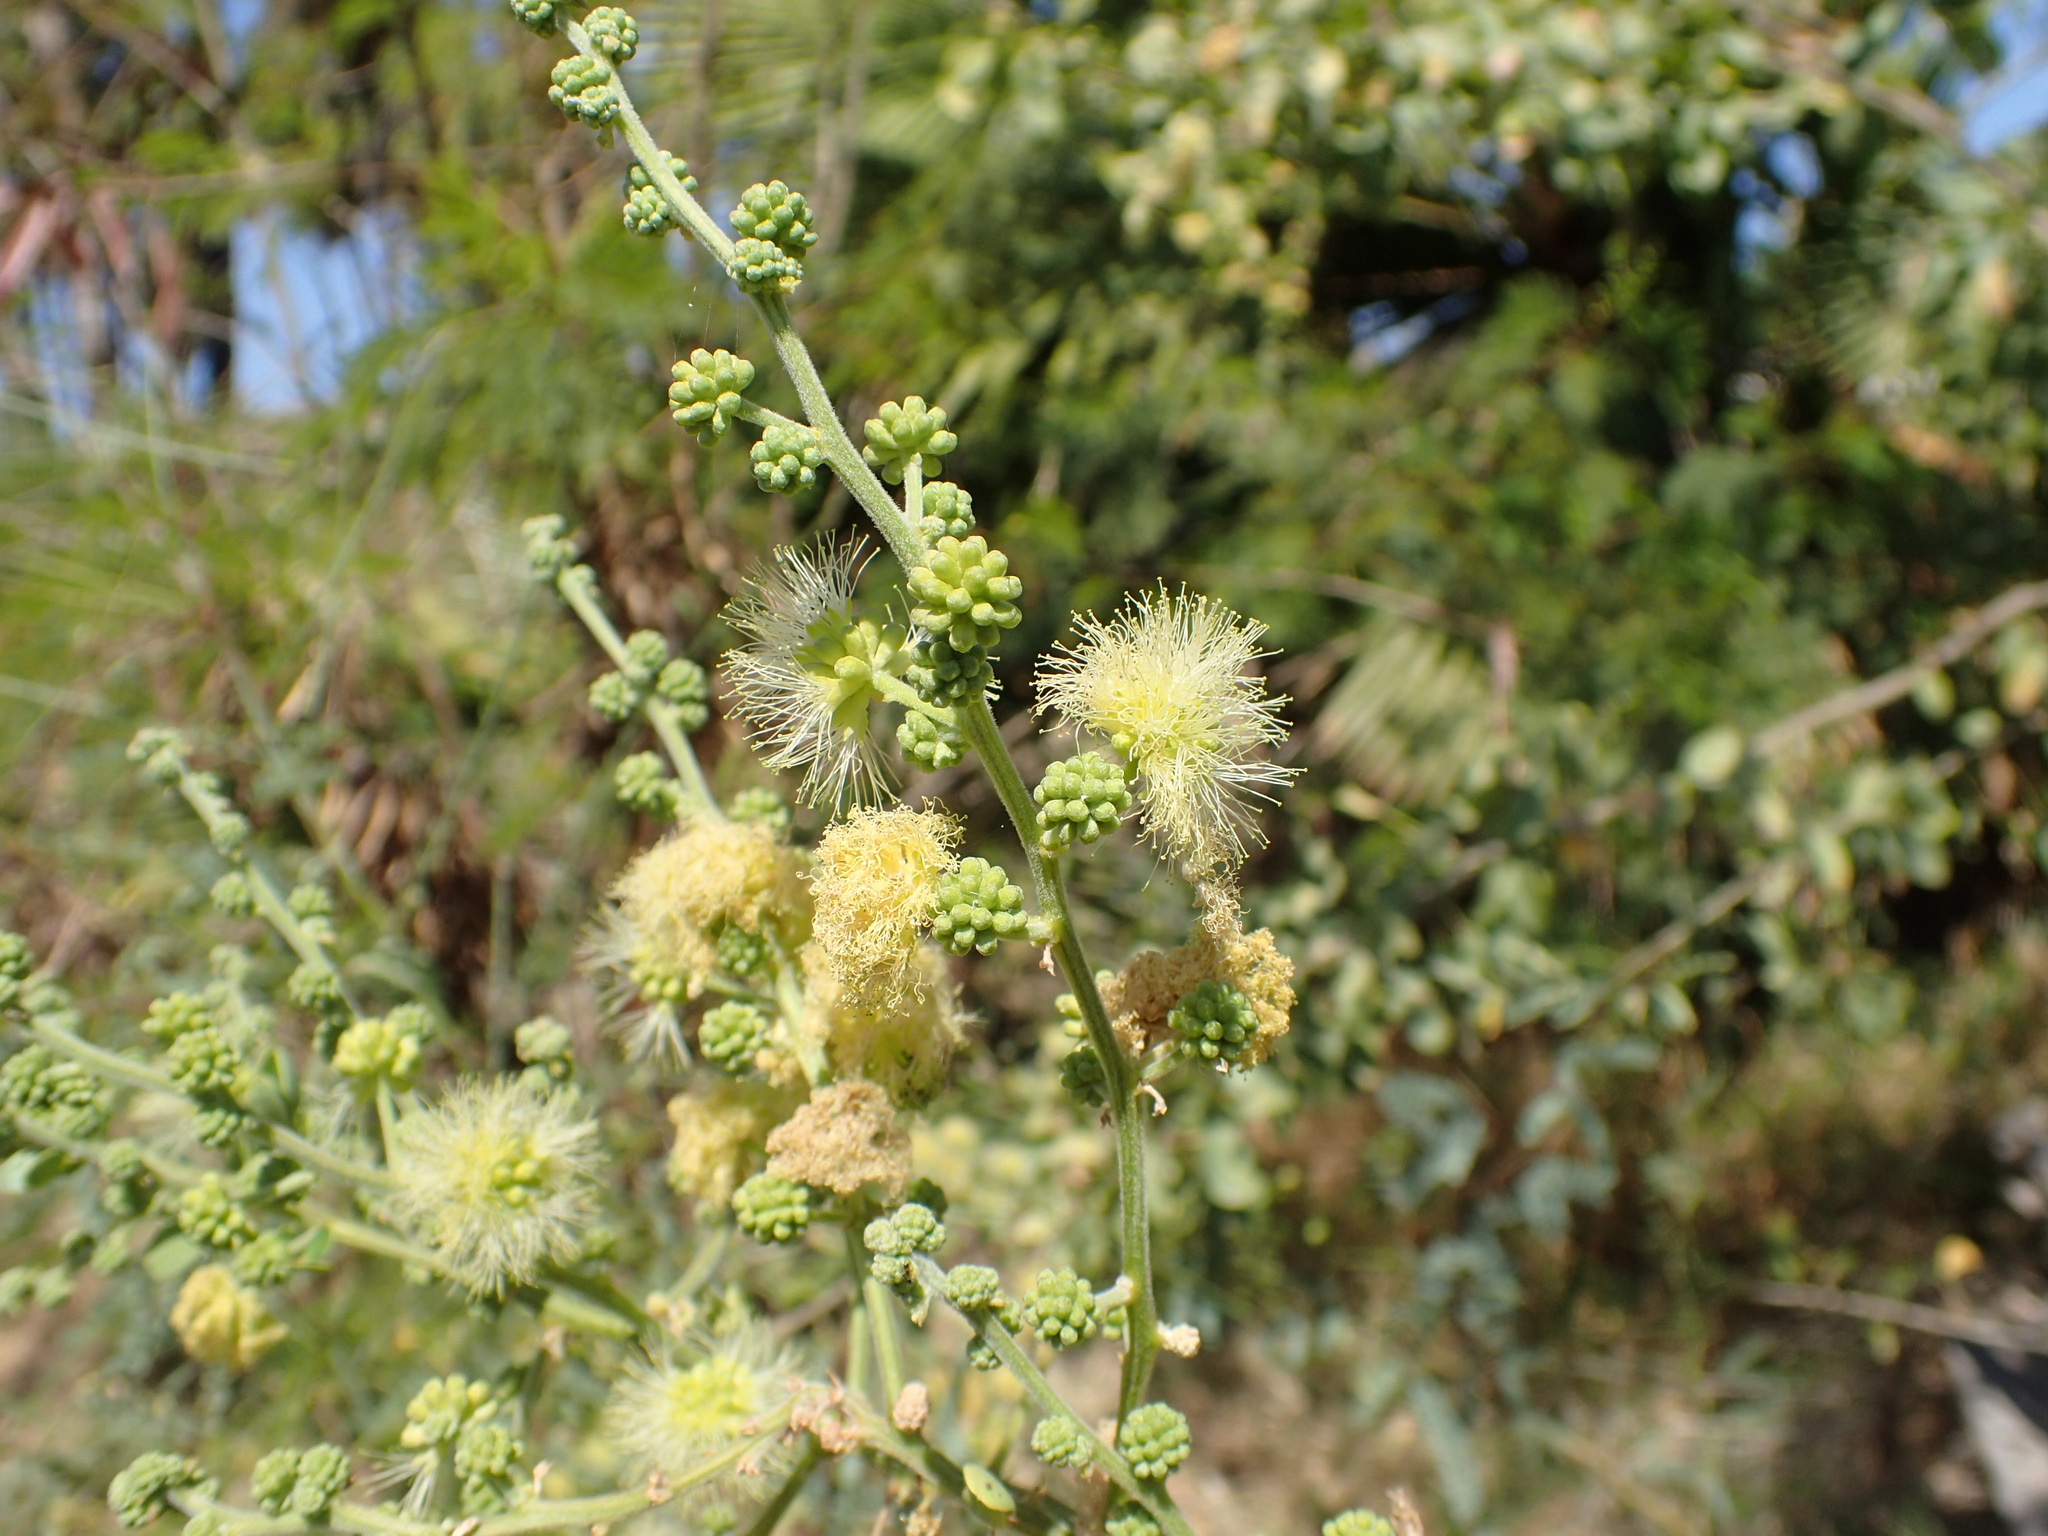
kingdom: Plantae
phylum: Tracheophyta
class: Magnoliopsida
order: Fabales
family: Fabaceae
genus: Pithecellobium
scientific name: Pithecellobium dulce
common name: Monkeypod
